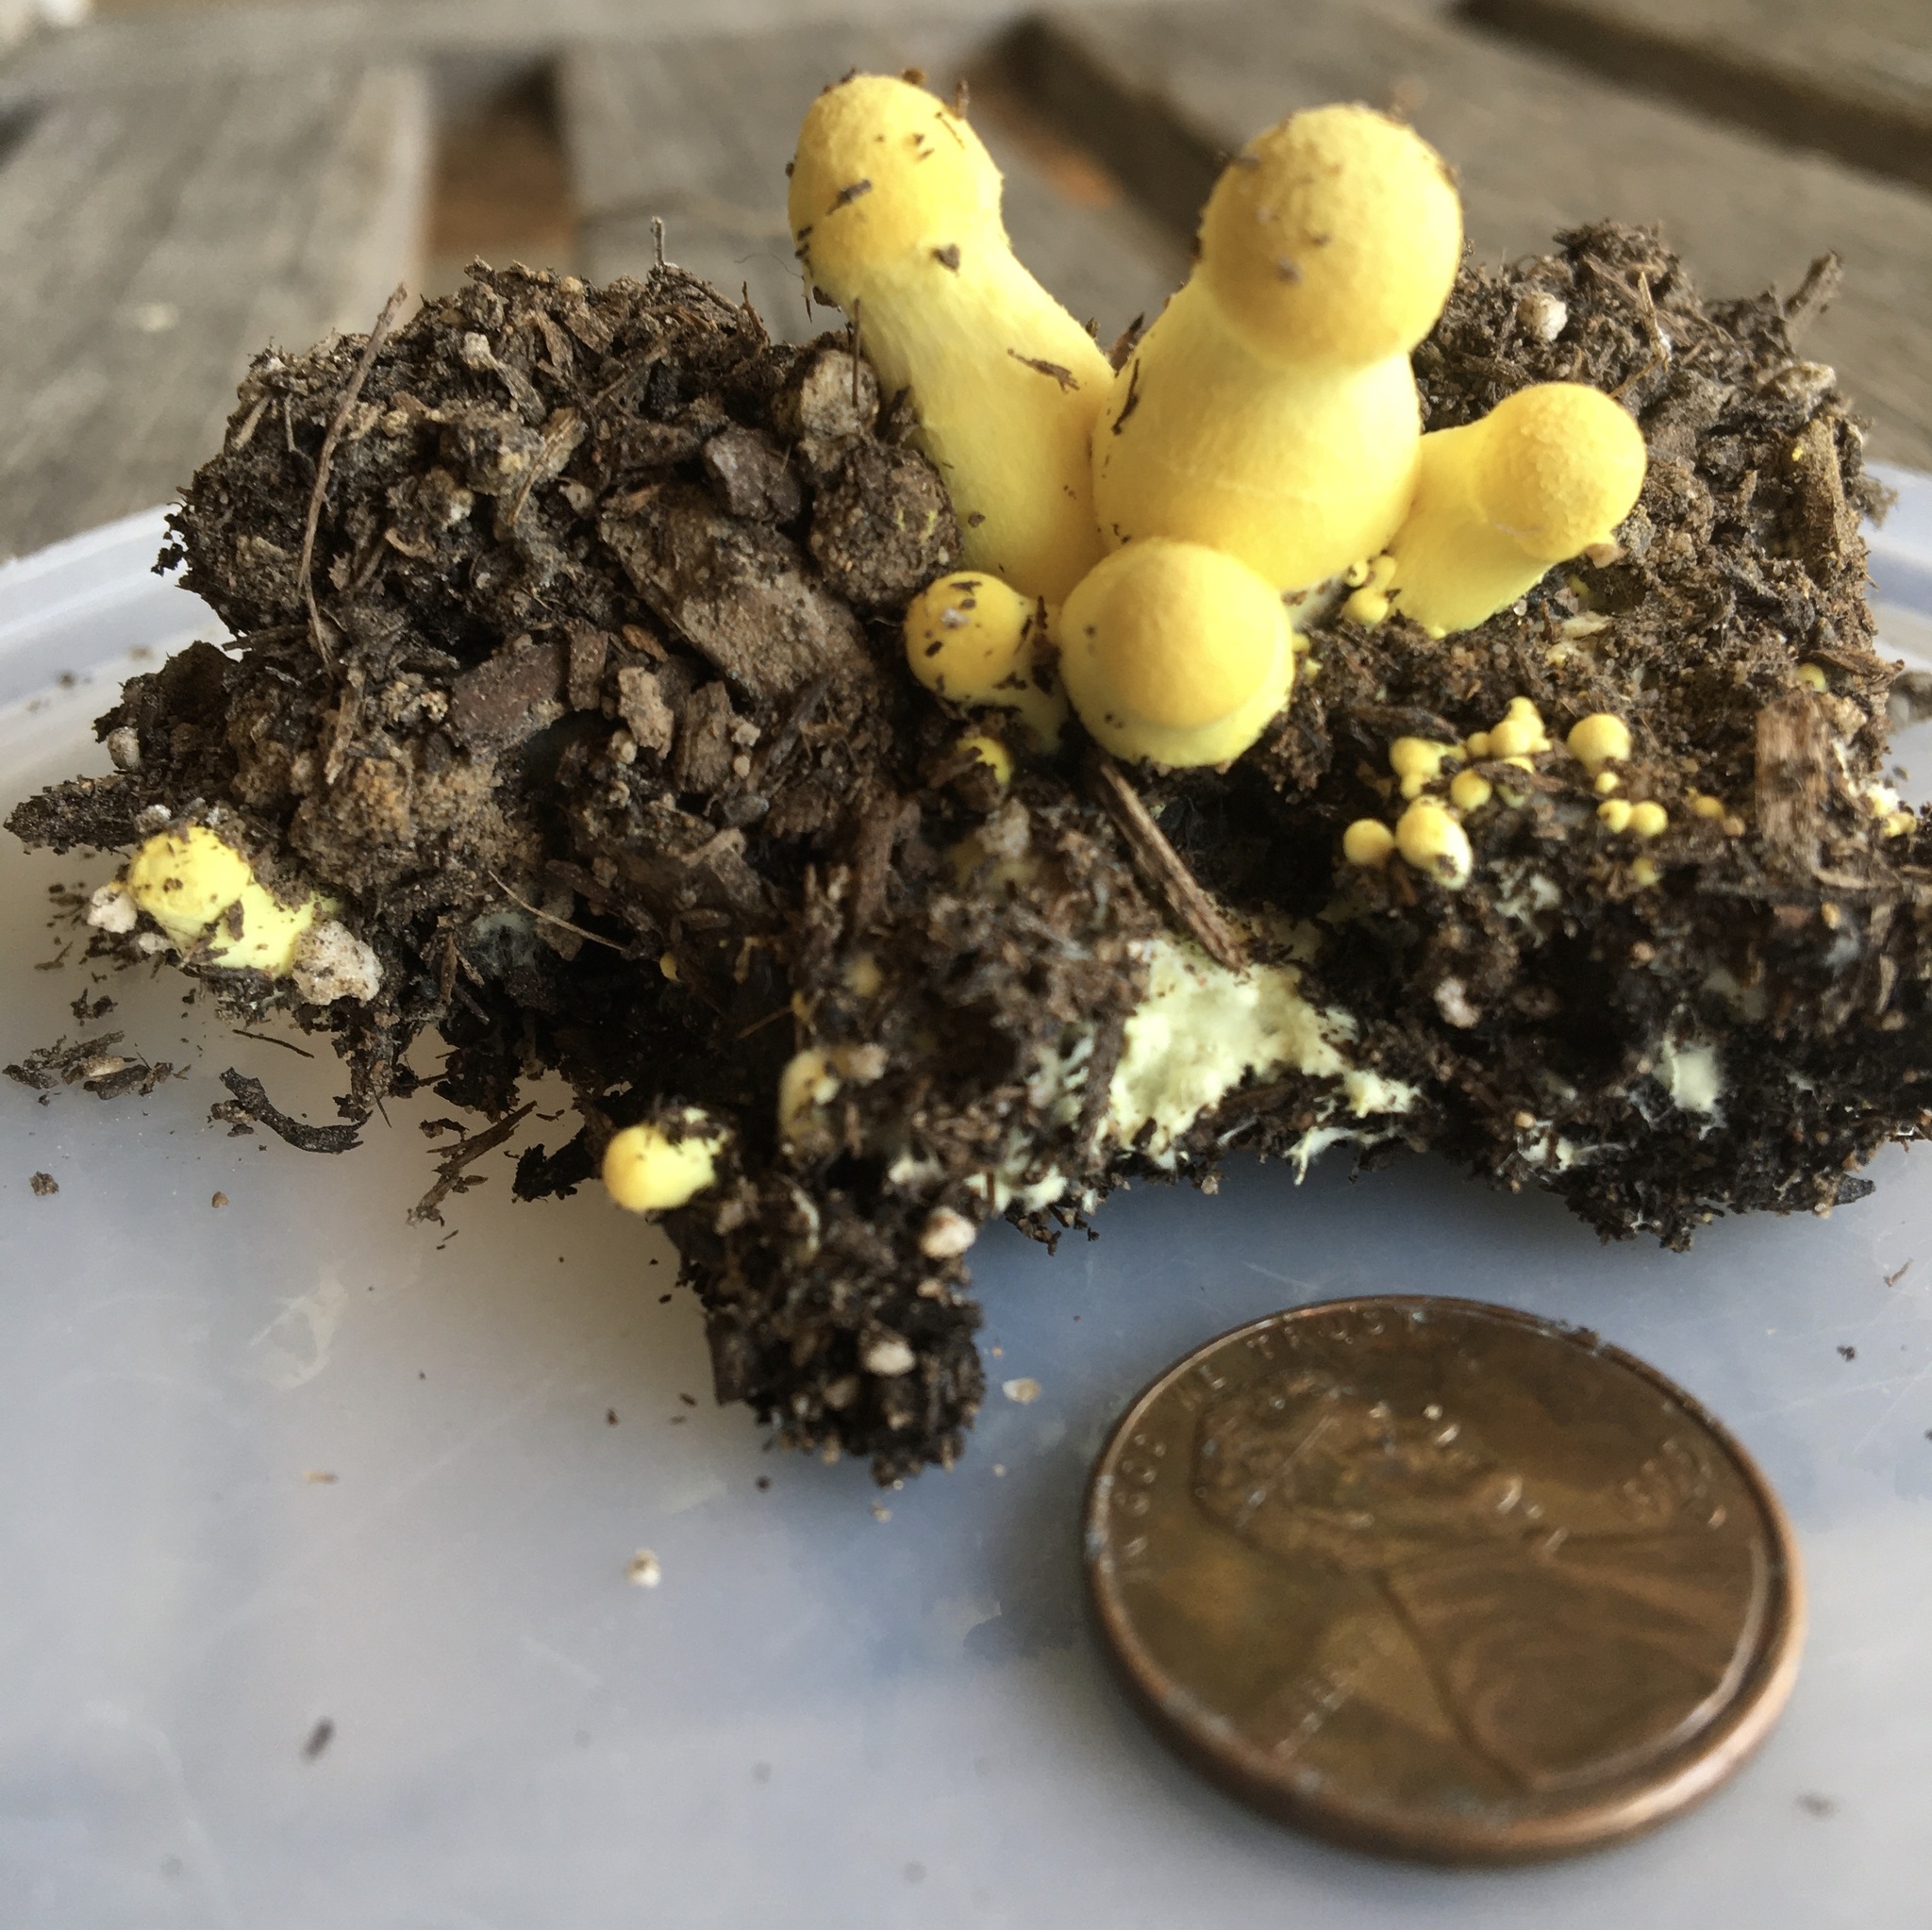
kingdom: Fungi
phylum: Basidiomycota
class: Agaricomycetes
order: Agaricales
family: Agaricaceae
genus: Leucocoprinus
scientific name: Leucocoprinus birnbaumii
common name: Plantpot dapperling
